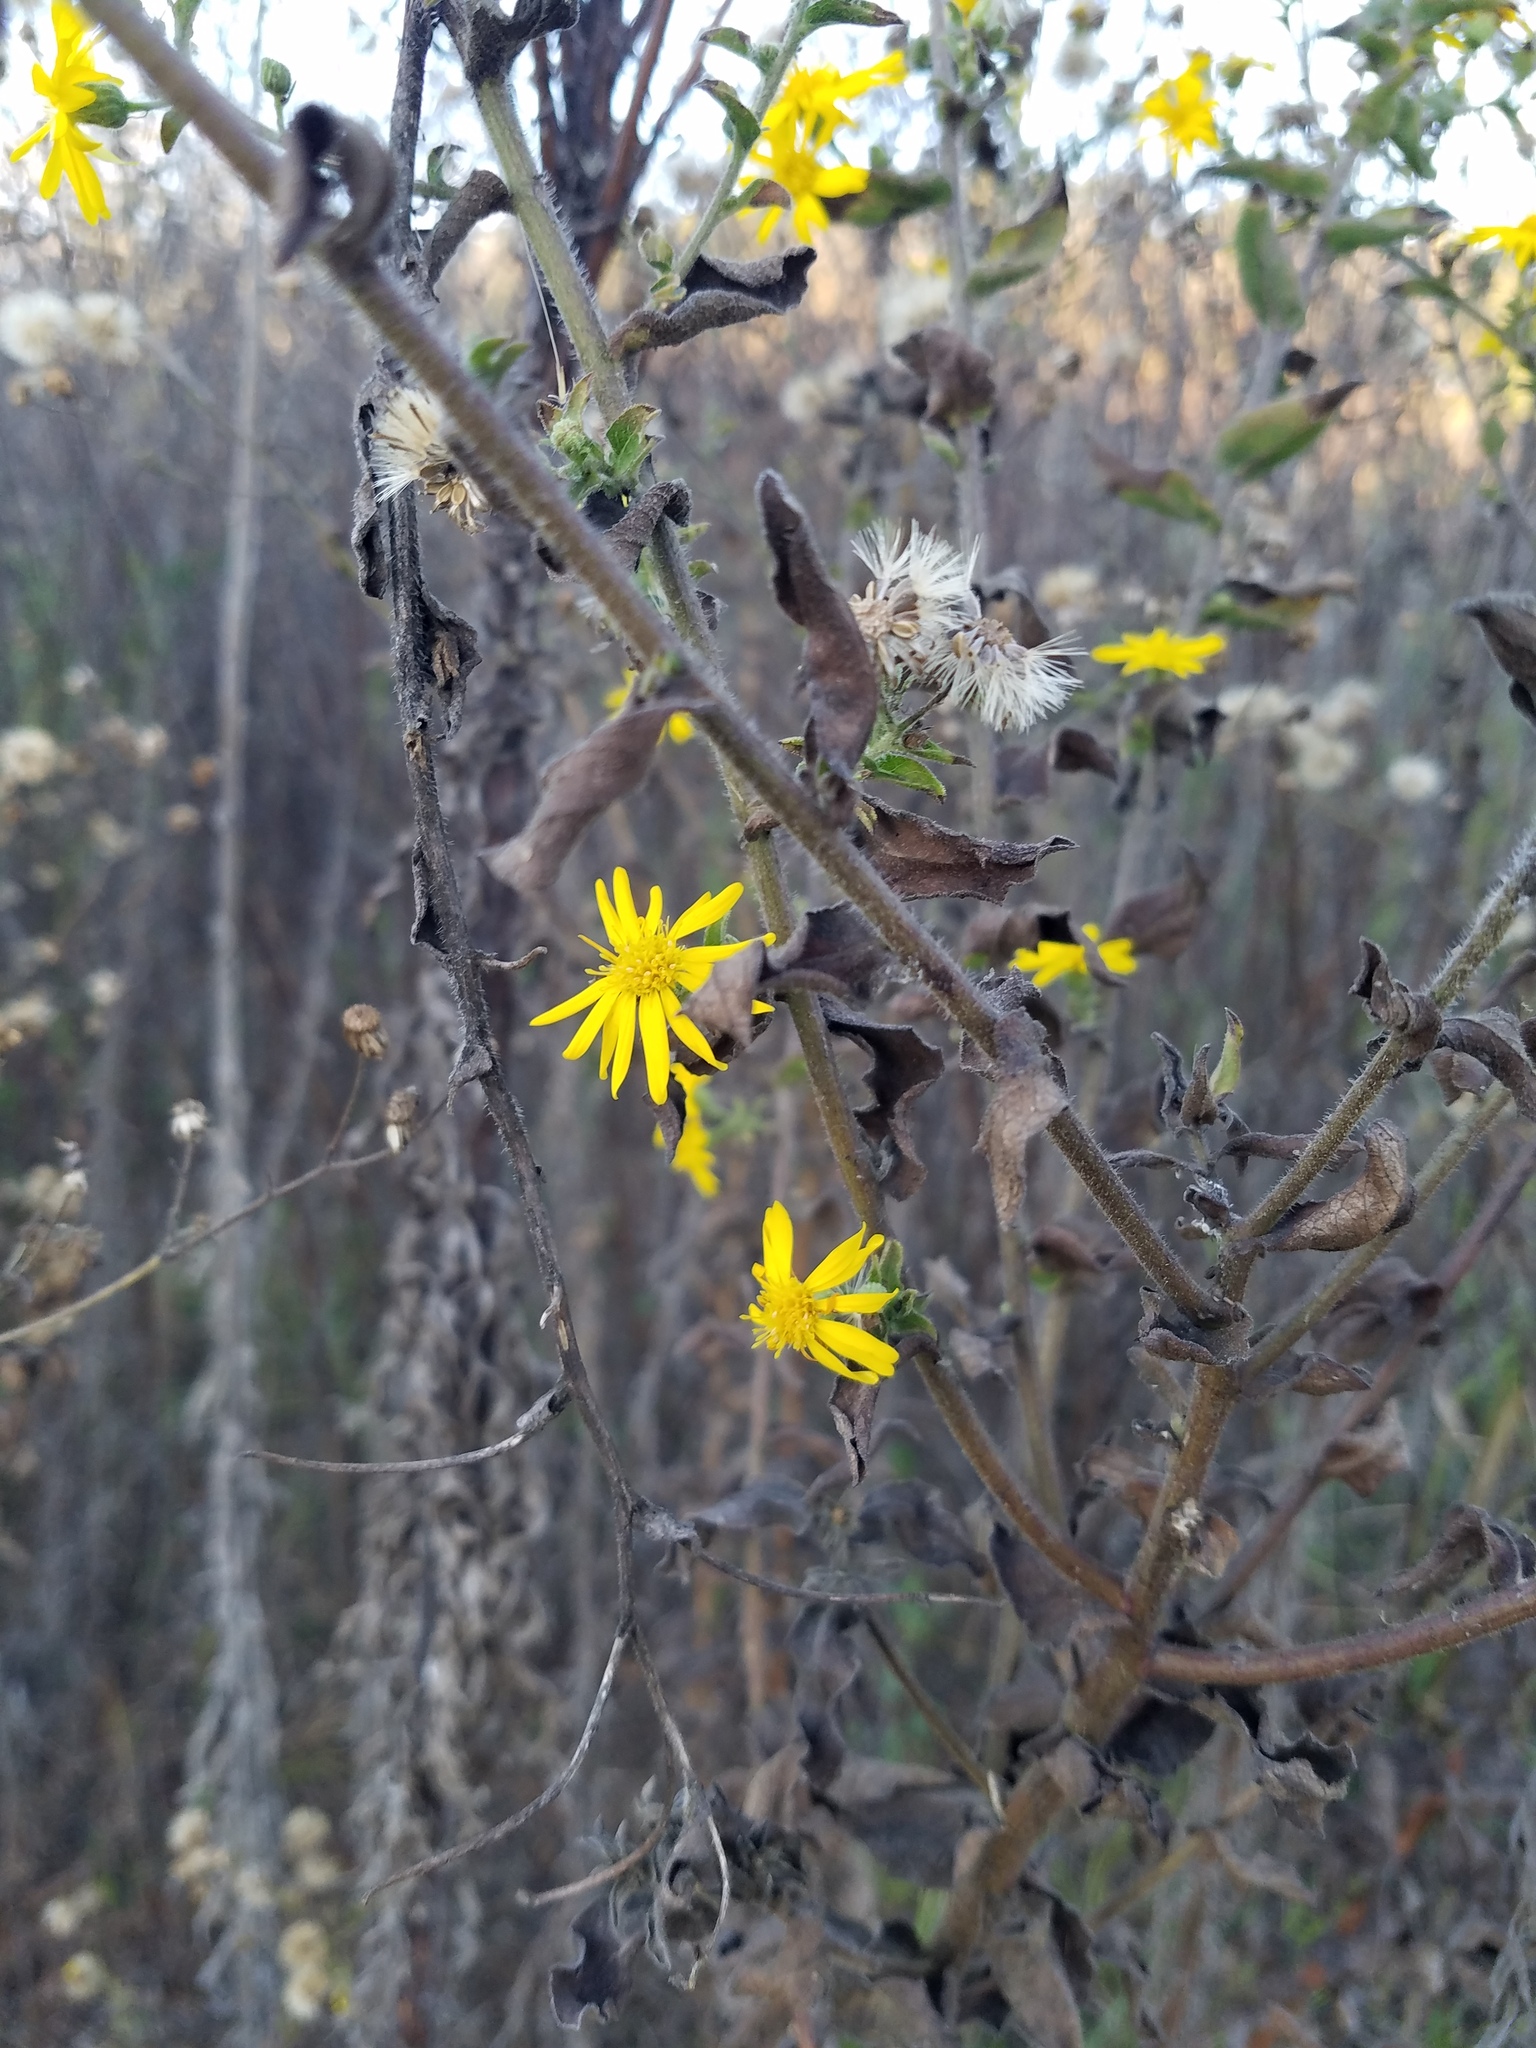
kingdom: Plantae
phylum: Tracheophyta
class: Magnoliopsida
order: Asterales
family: Asteraceae
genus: Heterotheca
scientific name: Heterotheca subaxillaris
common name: Camphorweed
